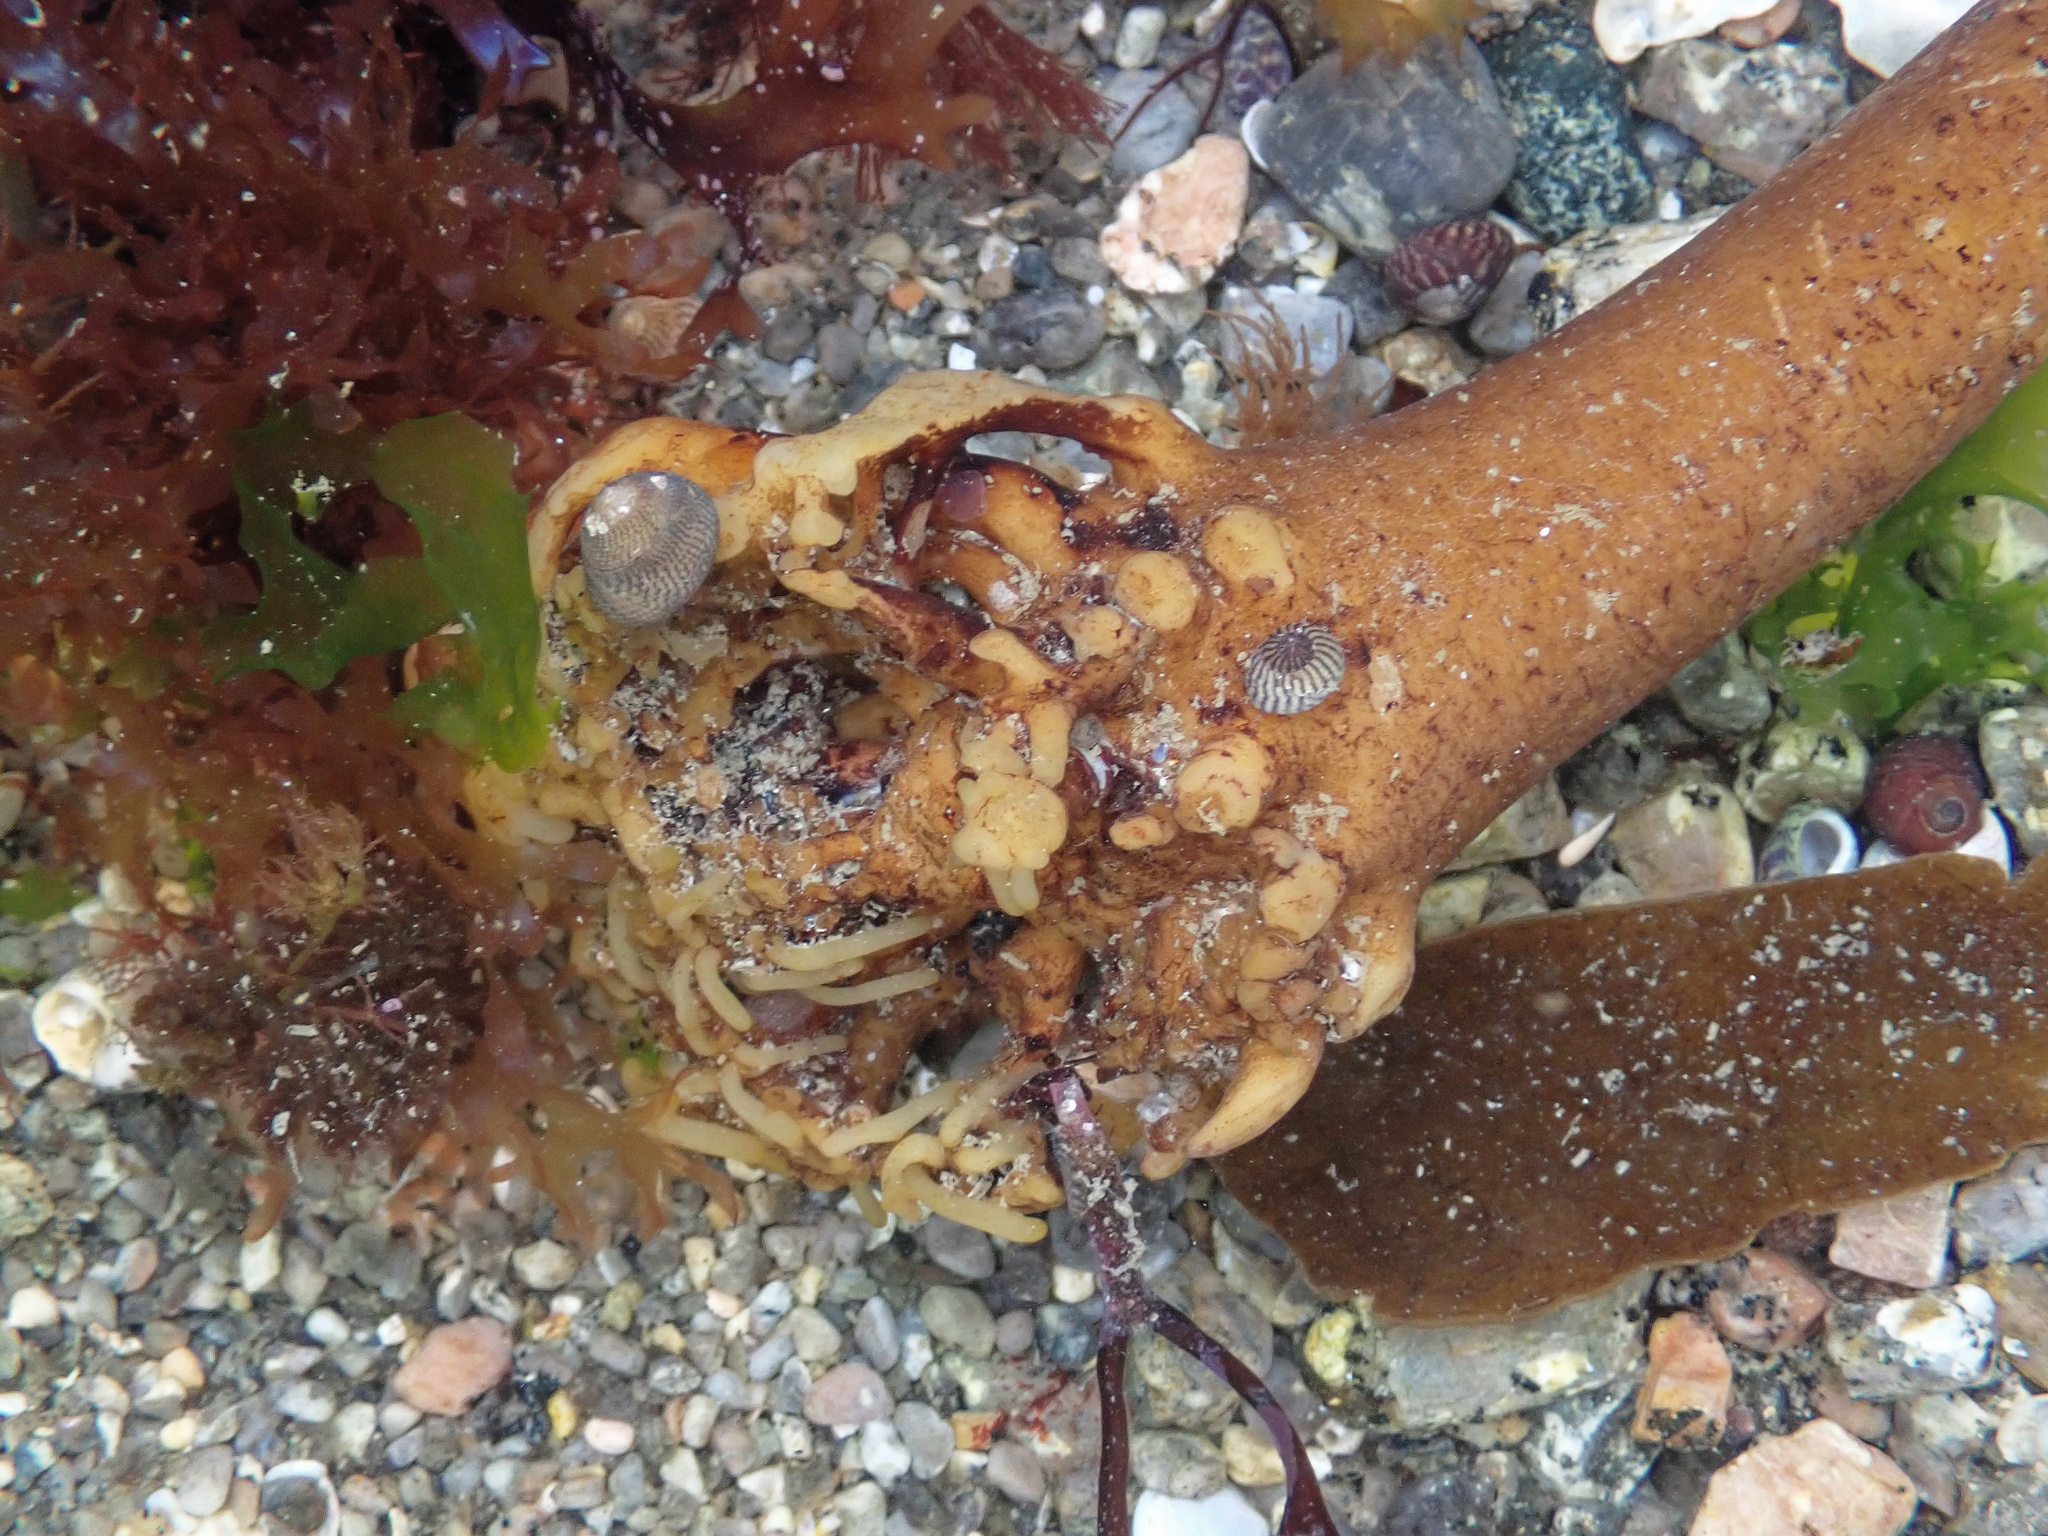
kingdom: Chromista
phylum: Ochrophyta
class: Phaeophyceae
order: Laminariales
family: Laminariaceae
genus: Laminaria
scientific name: Laminaria hyperborea
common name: Cuvie
